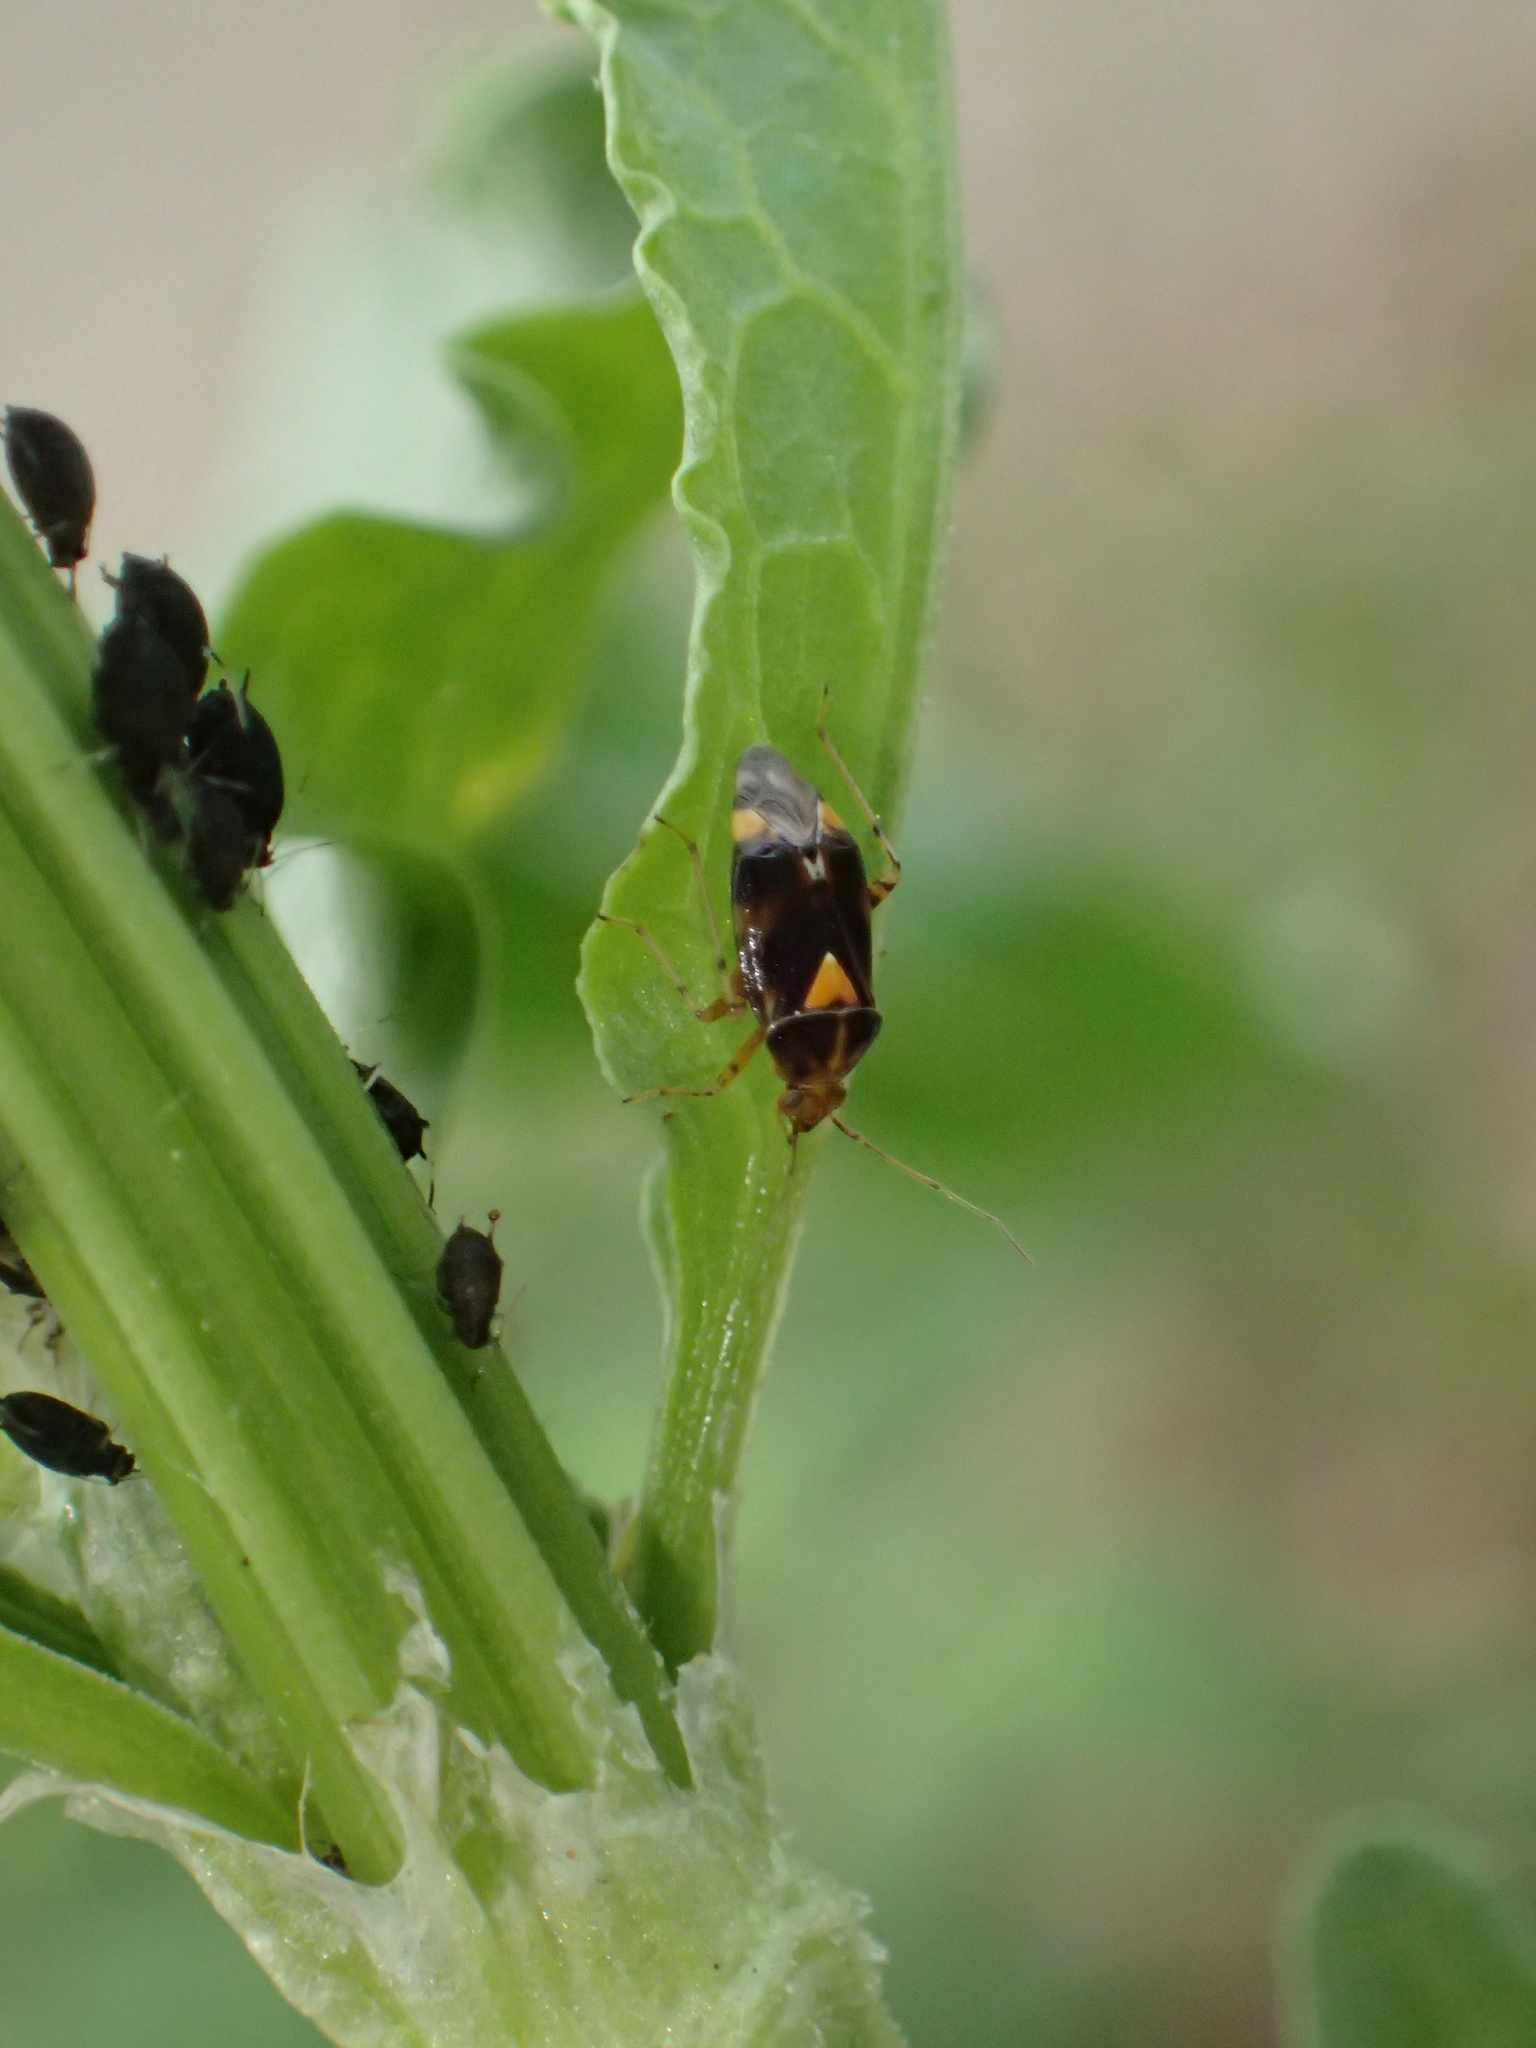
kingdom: Animalia
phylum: Arthropoda
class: Insecta
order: Hemiptera
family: Miridae
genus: Liocoris
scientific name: Liocoris tripustulatus
